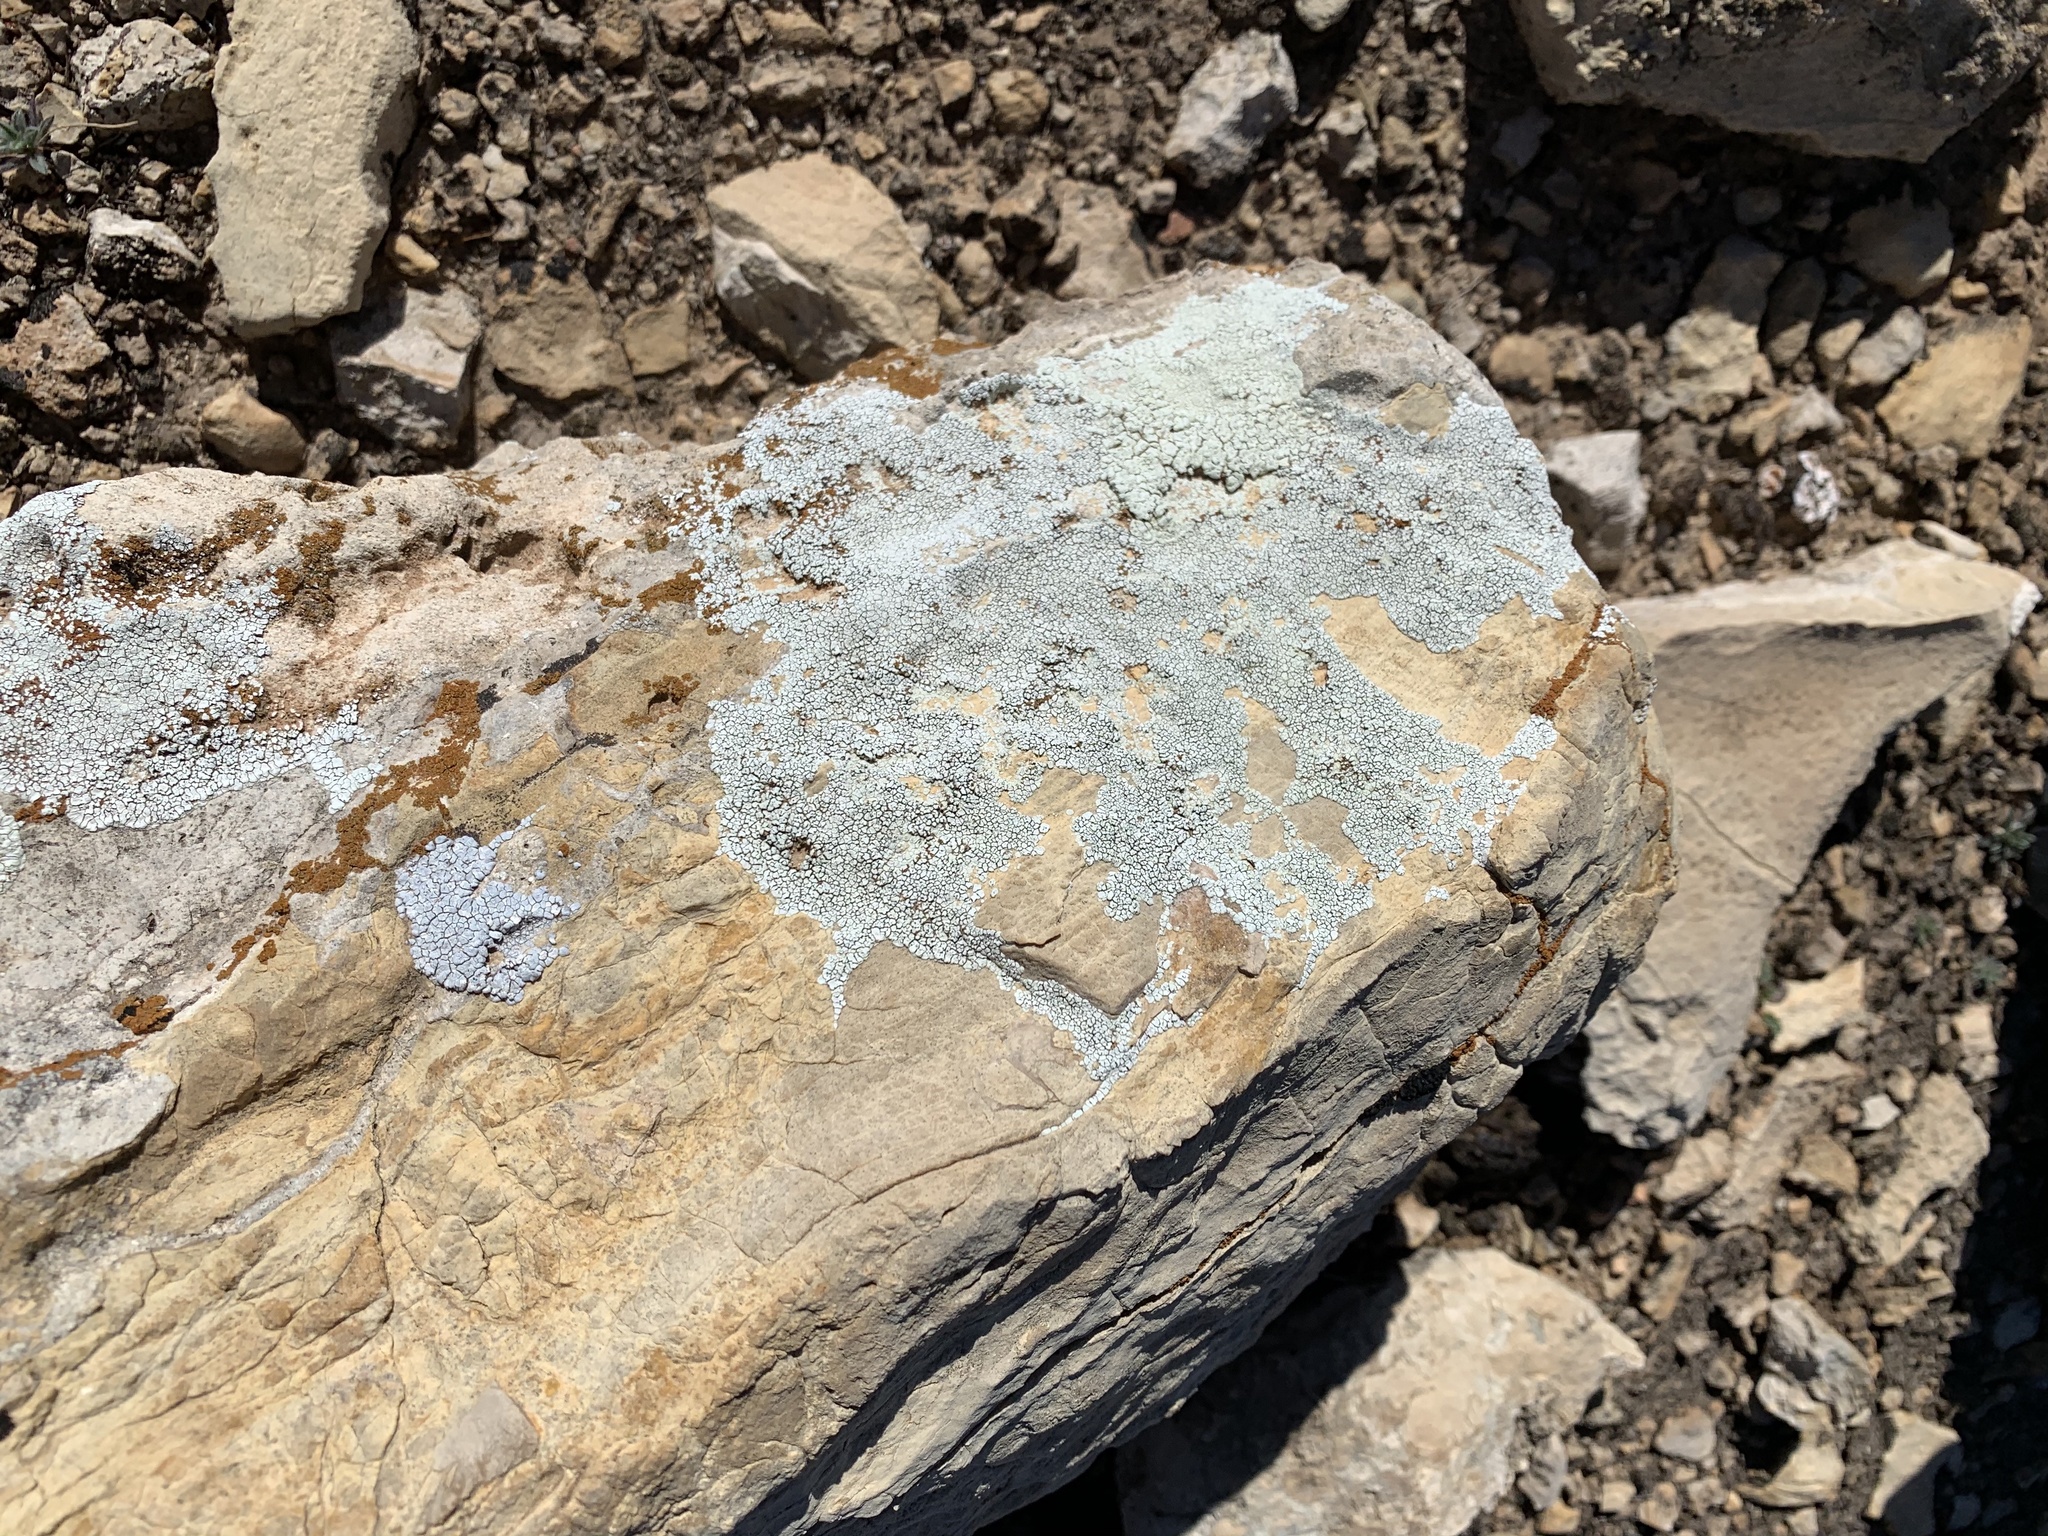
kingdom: Fungi
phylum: Ascomycota
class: Lecanoromycetes
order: Pertusariales
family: Megasporaceae
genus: Aspicilia
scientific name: Aspicilia cinerea
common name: Cinder lichen
